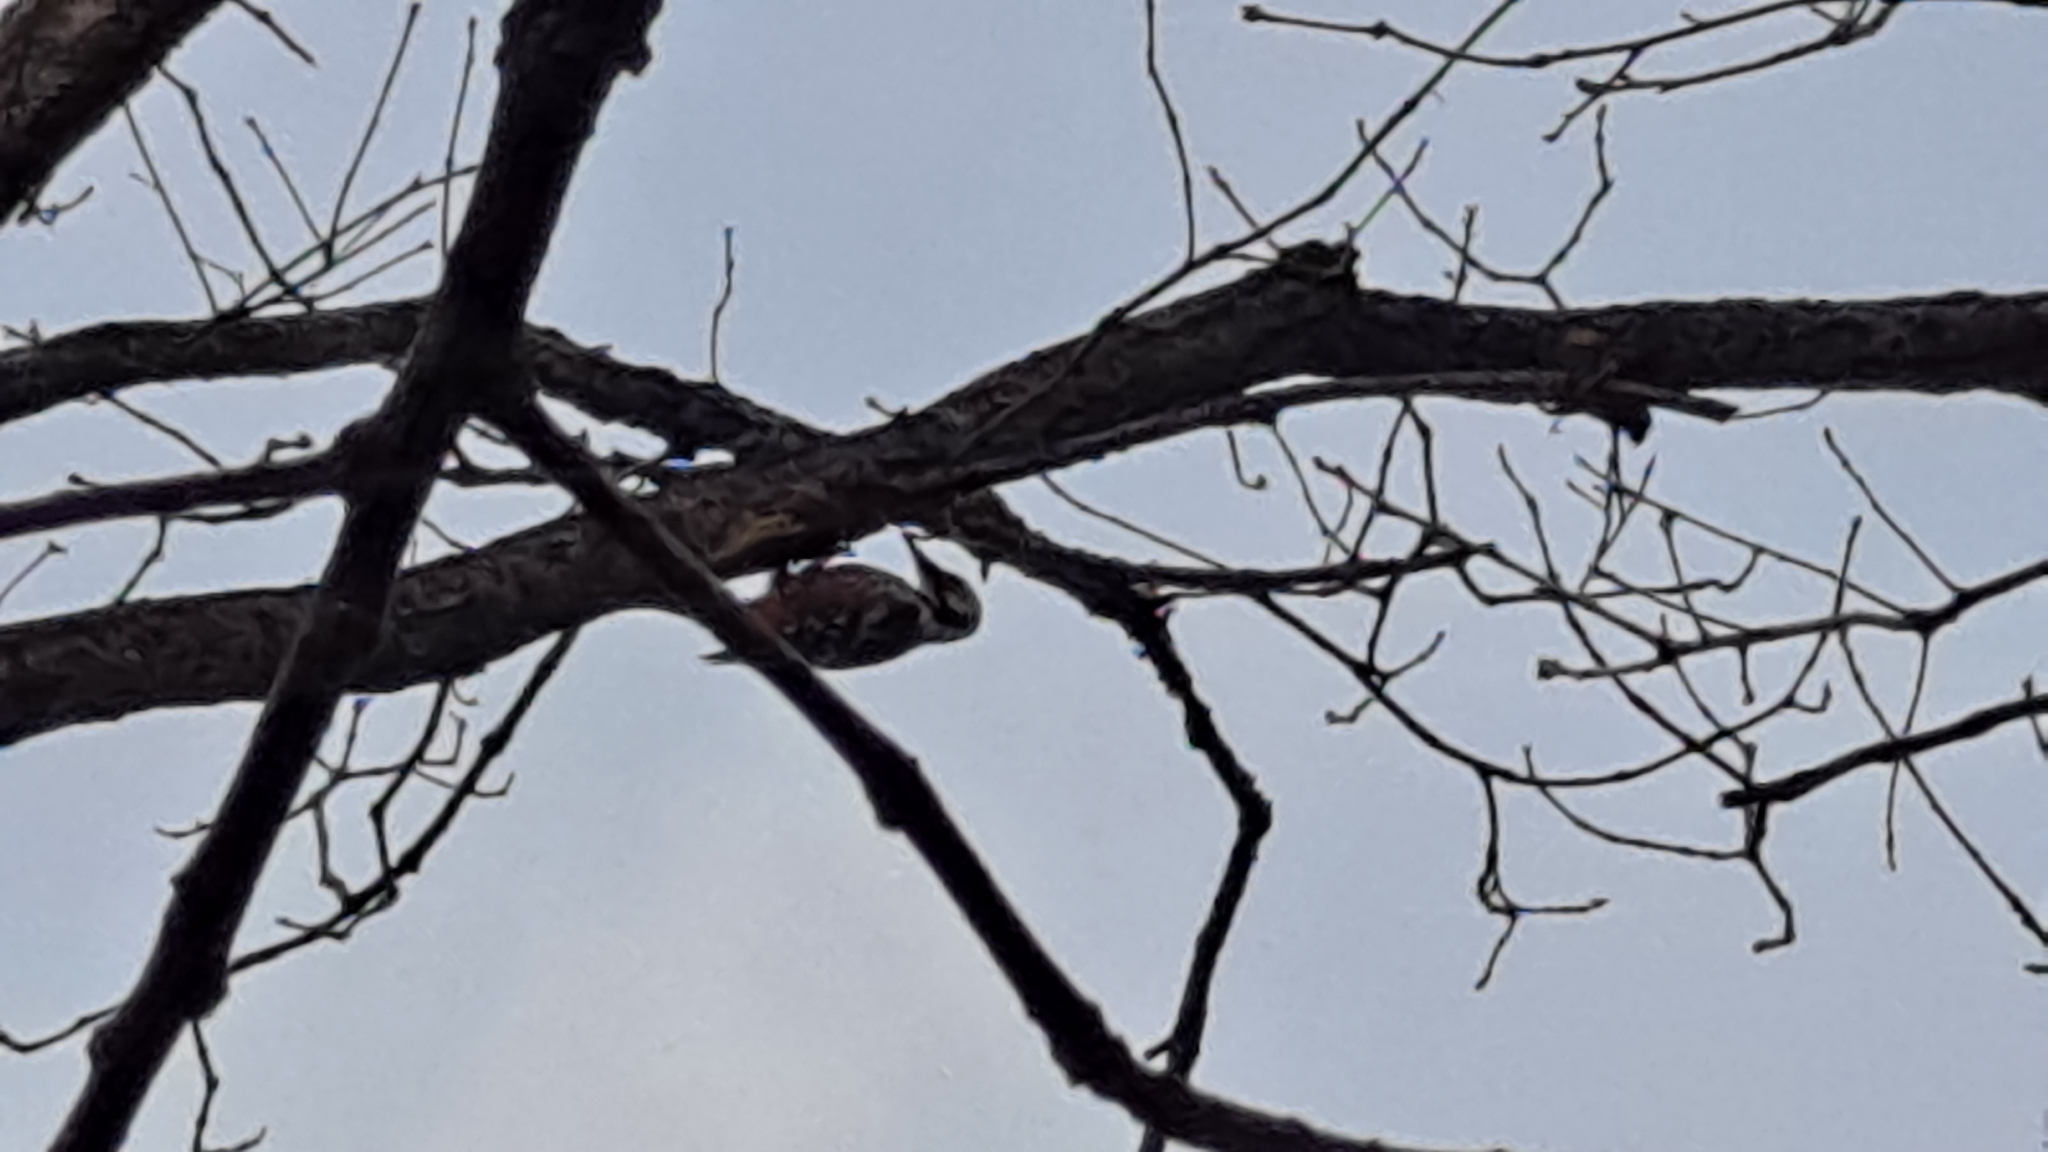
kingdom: Animalia
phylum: Chordata
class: Aves
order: Piciformes
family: Picidae
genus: Dendrocopos
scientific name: Dendrocopos leucotos
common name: White-backed woodpecker
